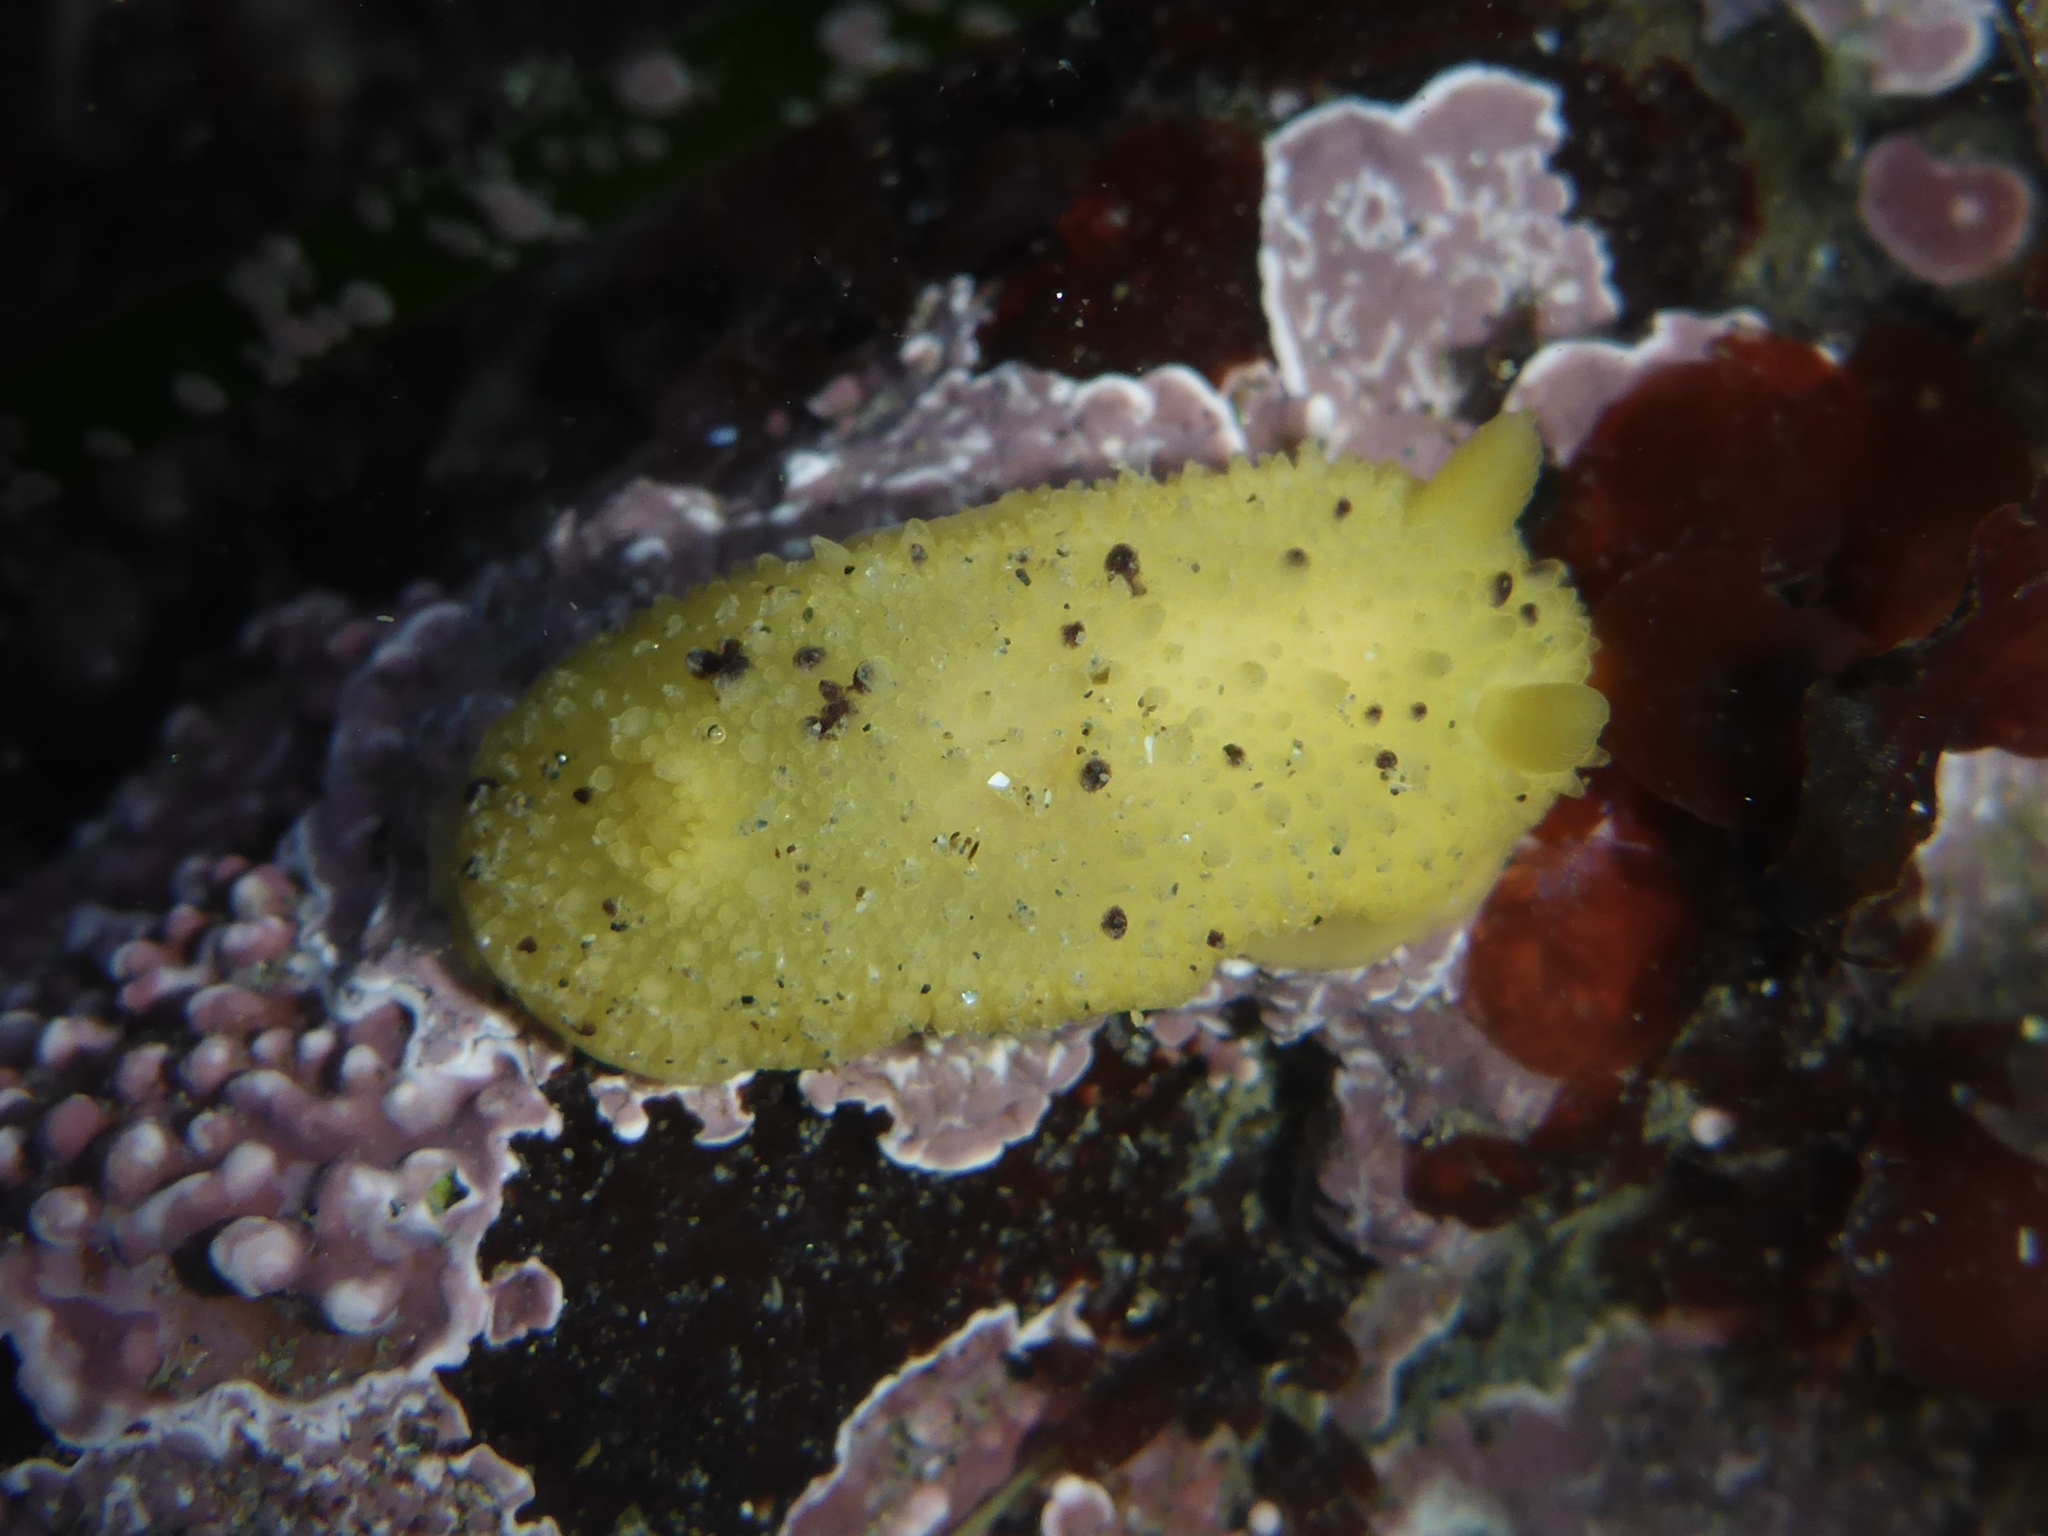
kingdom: Animalia
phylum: Mollusca
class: Gastropoda
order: Nudibranchia
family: Dorididae
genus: Doris
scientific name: Doris montereyensis
